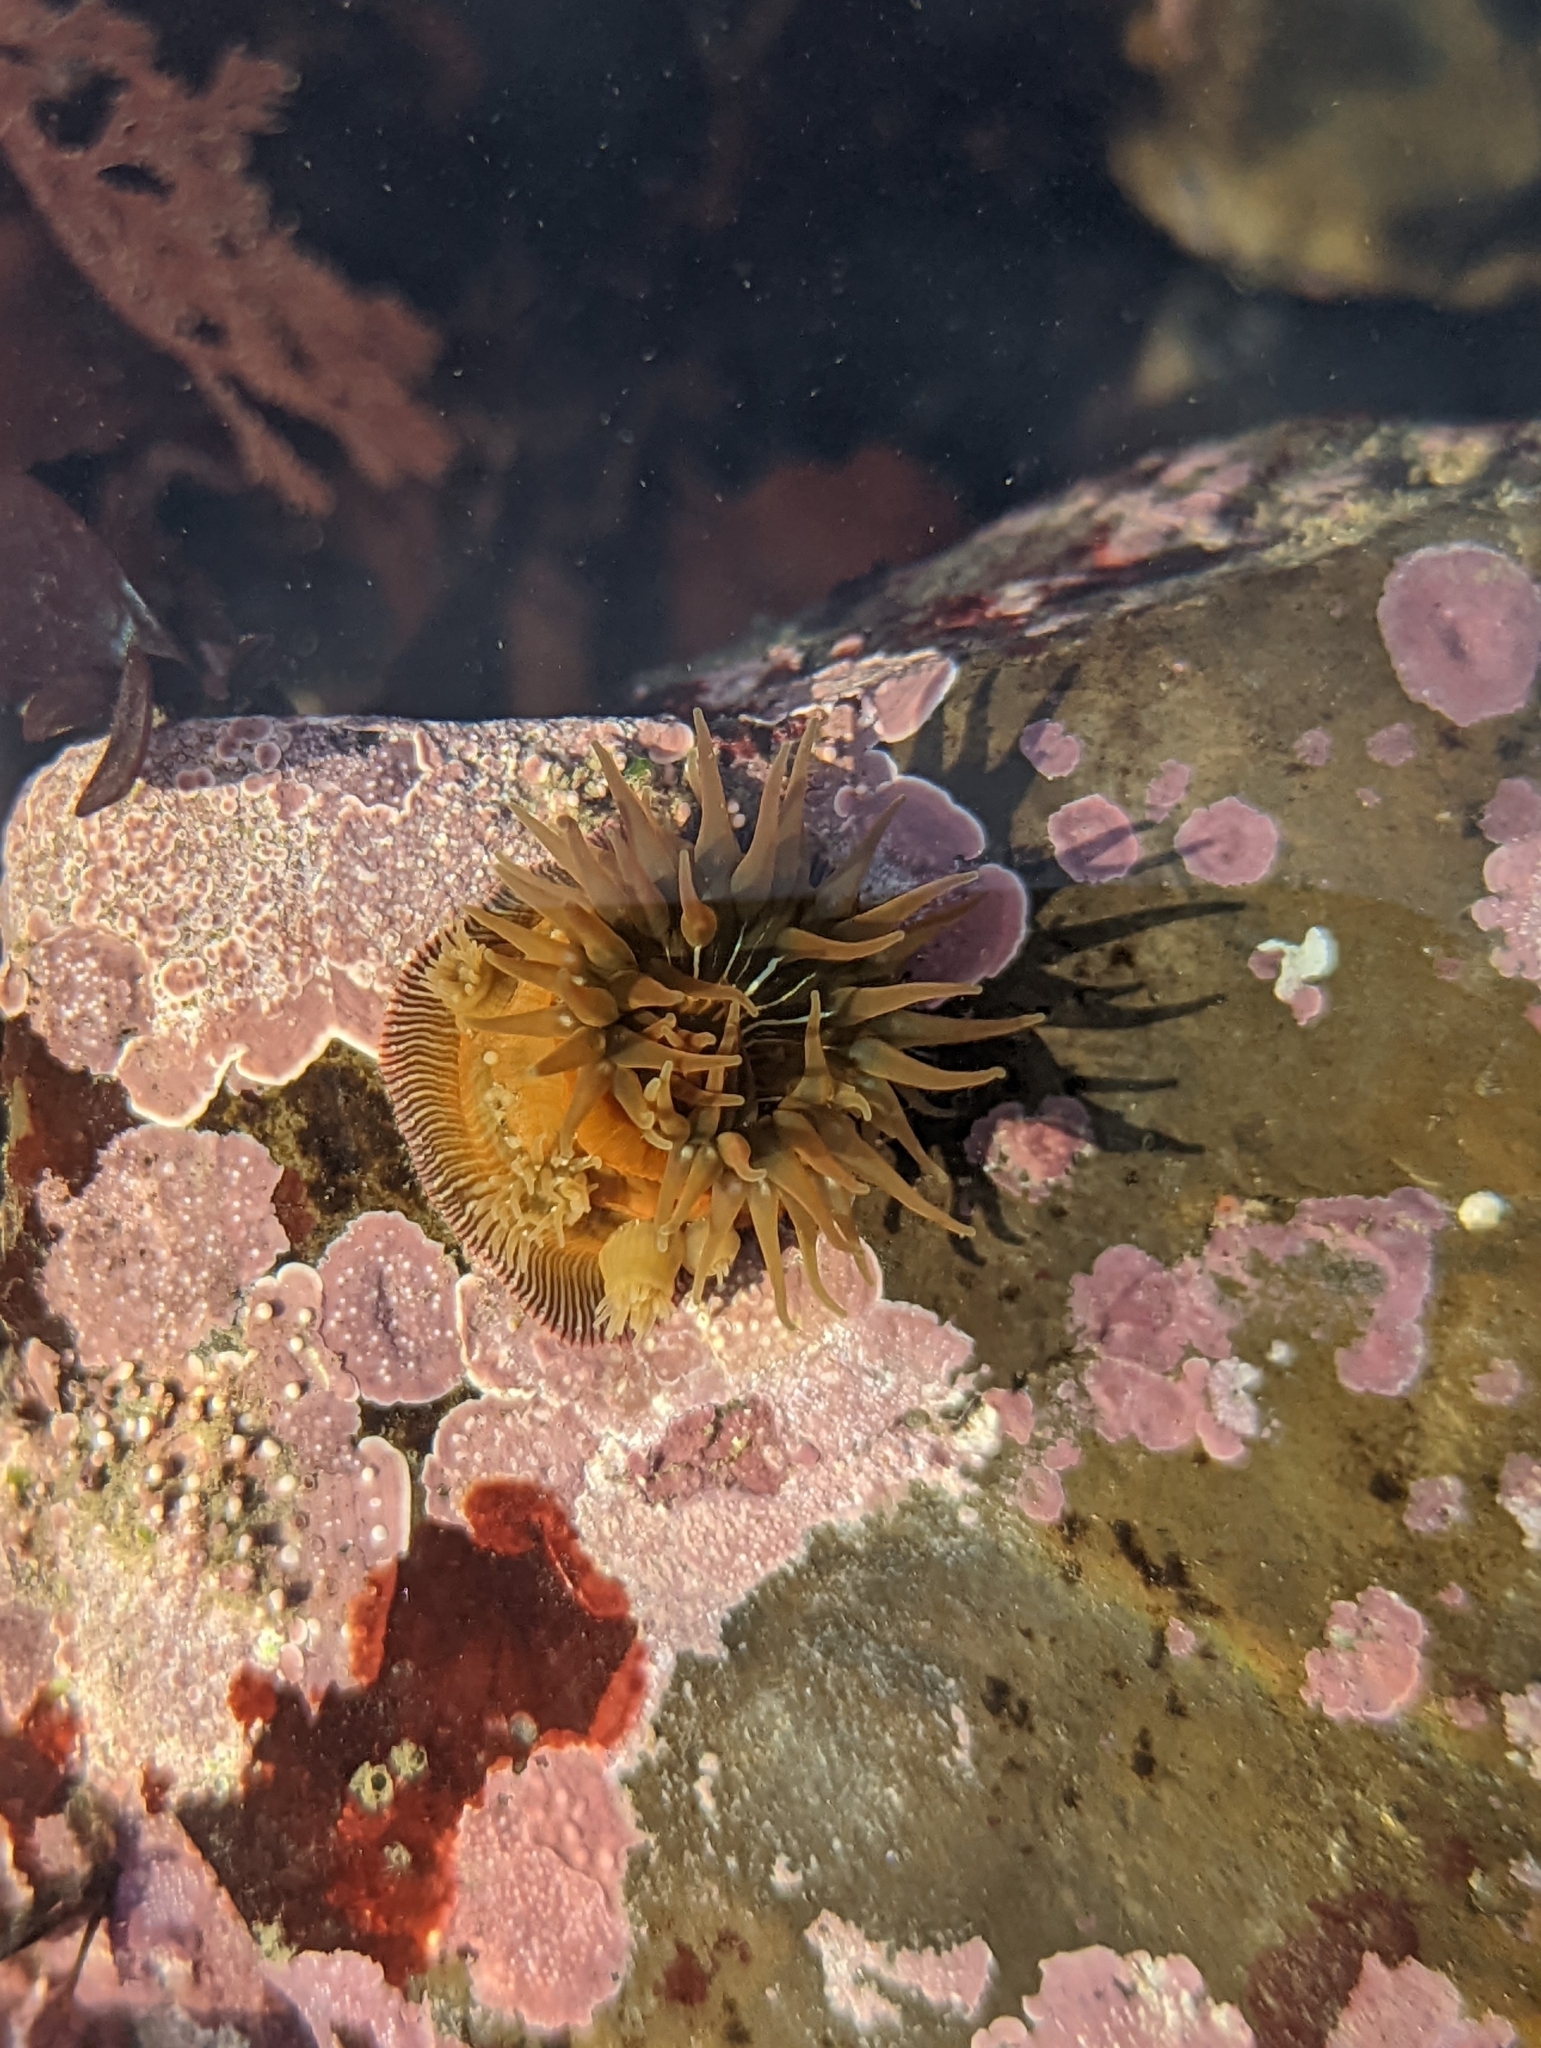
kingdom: Animalia
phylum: Cnidaria
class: Anthozoa
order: Actiniaria
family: Actiniidae
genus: Epiactis
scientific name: Epiactis prolifera
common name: Brooding anemone
